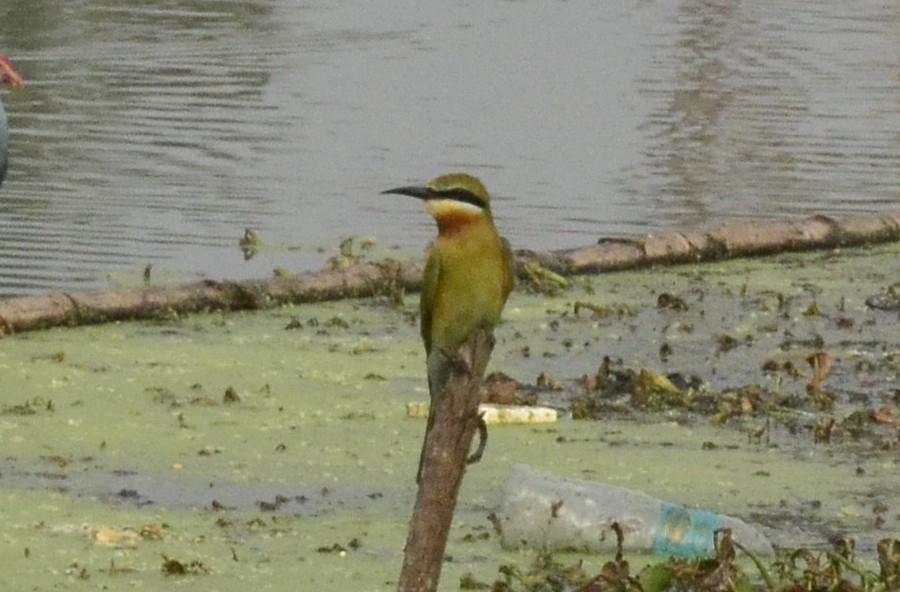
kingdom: Animalia
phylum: Chordata
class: Aves
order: Coraciiformes
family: Meropidae
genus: Merops
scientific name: Merops philippinus
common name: Blue-tailed bee-eater
